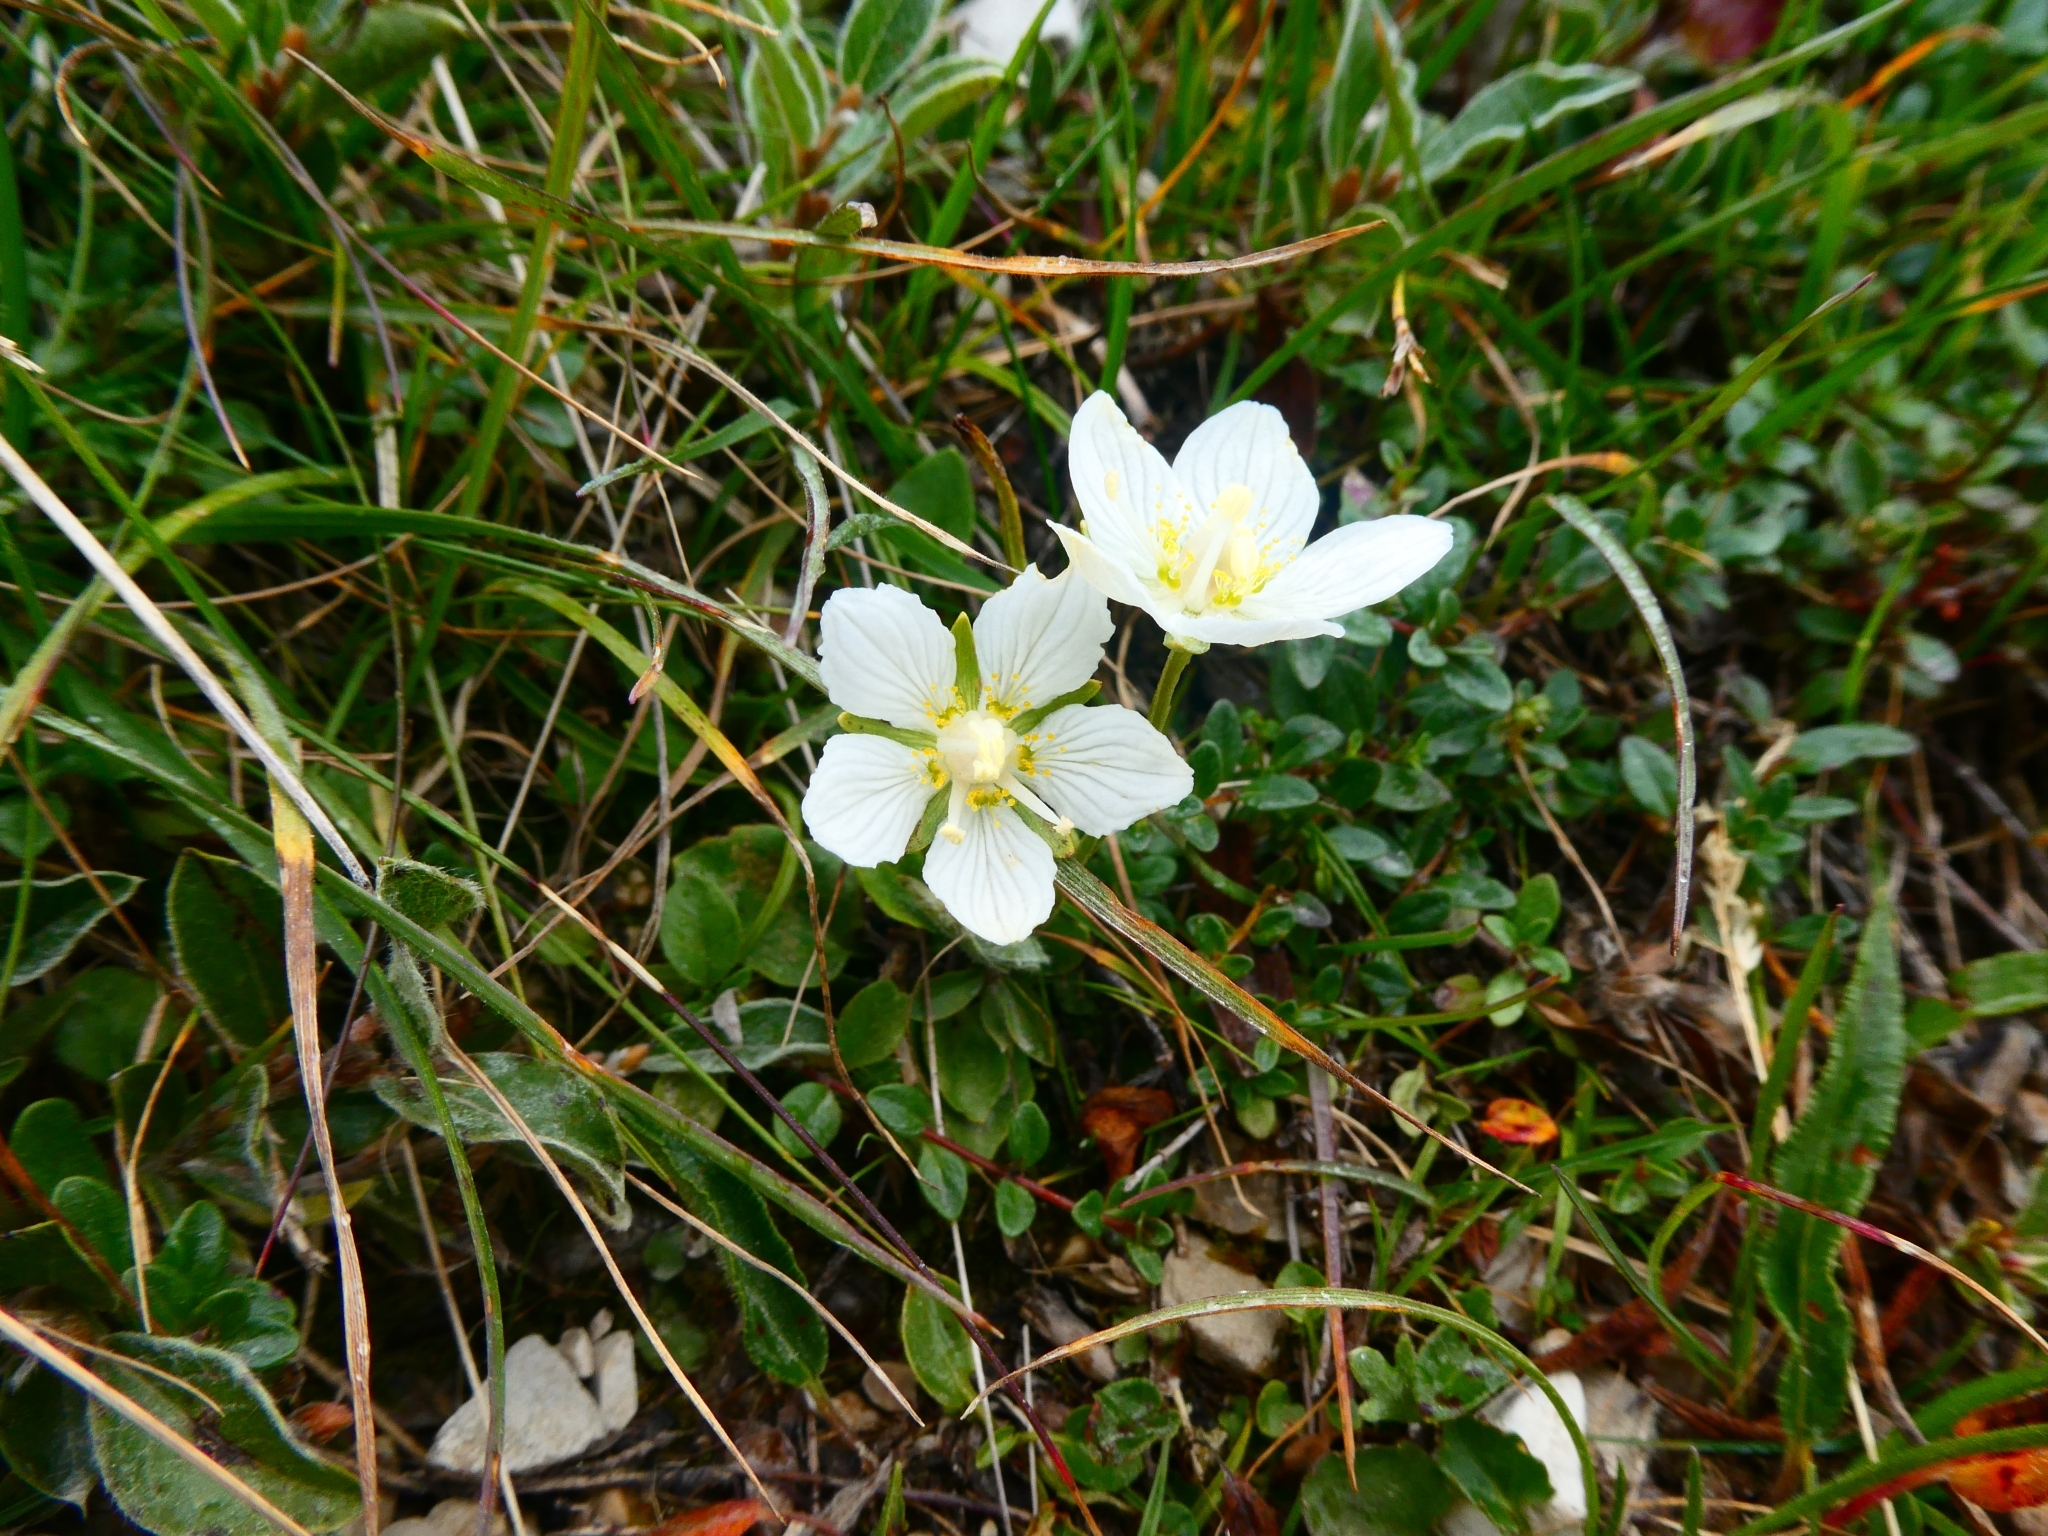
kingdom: Plantae
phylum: Tracheophyta
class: Magnoliopsida
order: Celastrales
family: Parnassiaceae
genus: Parnassia
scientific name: Parnassia palustris
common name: Grass-of-parnassus
